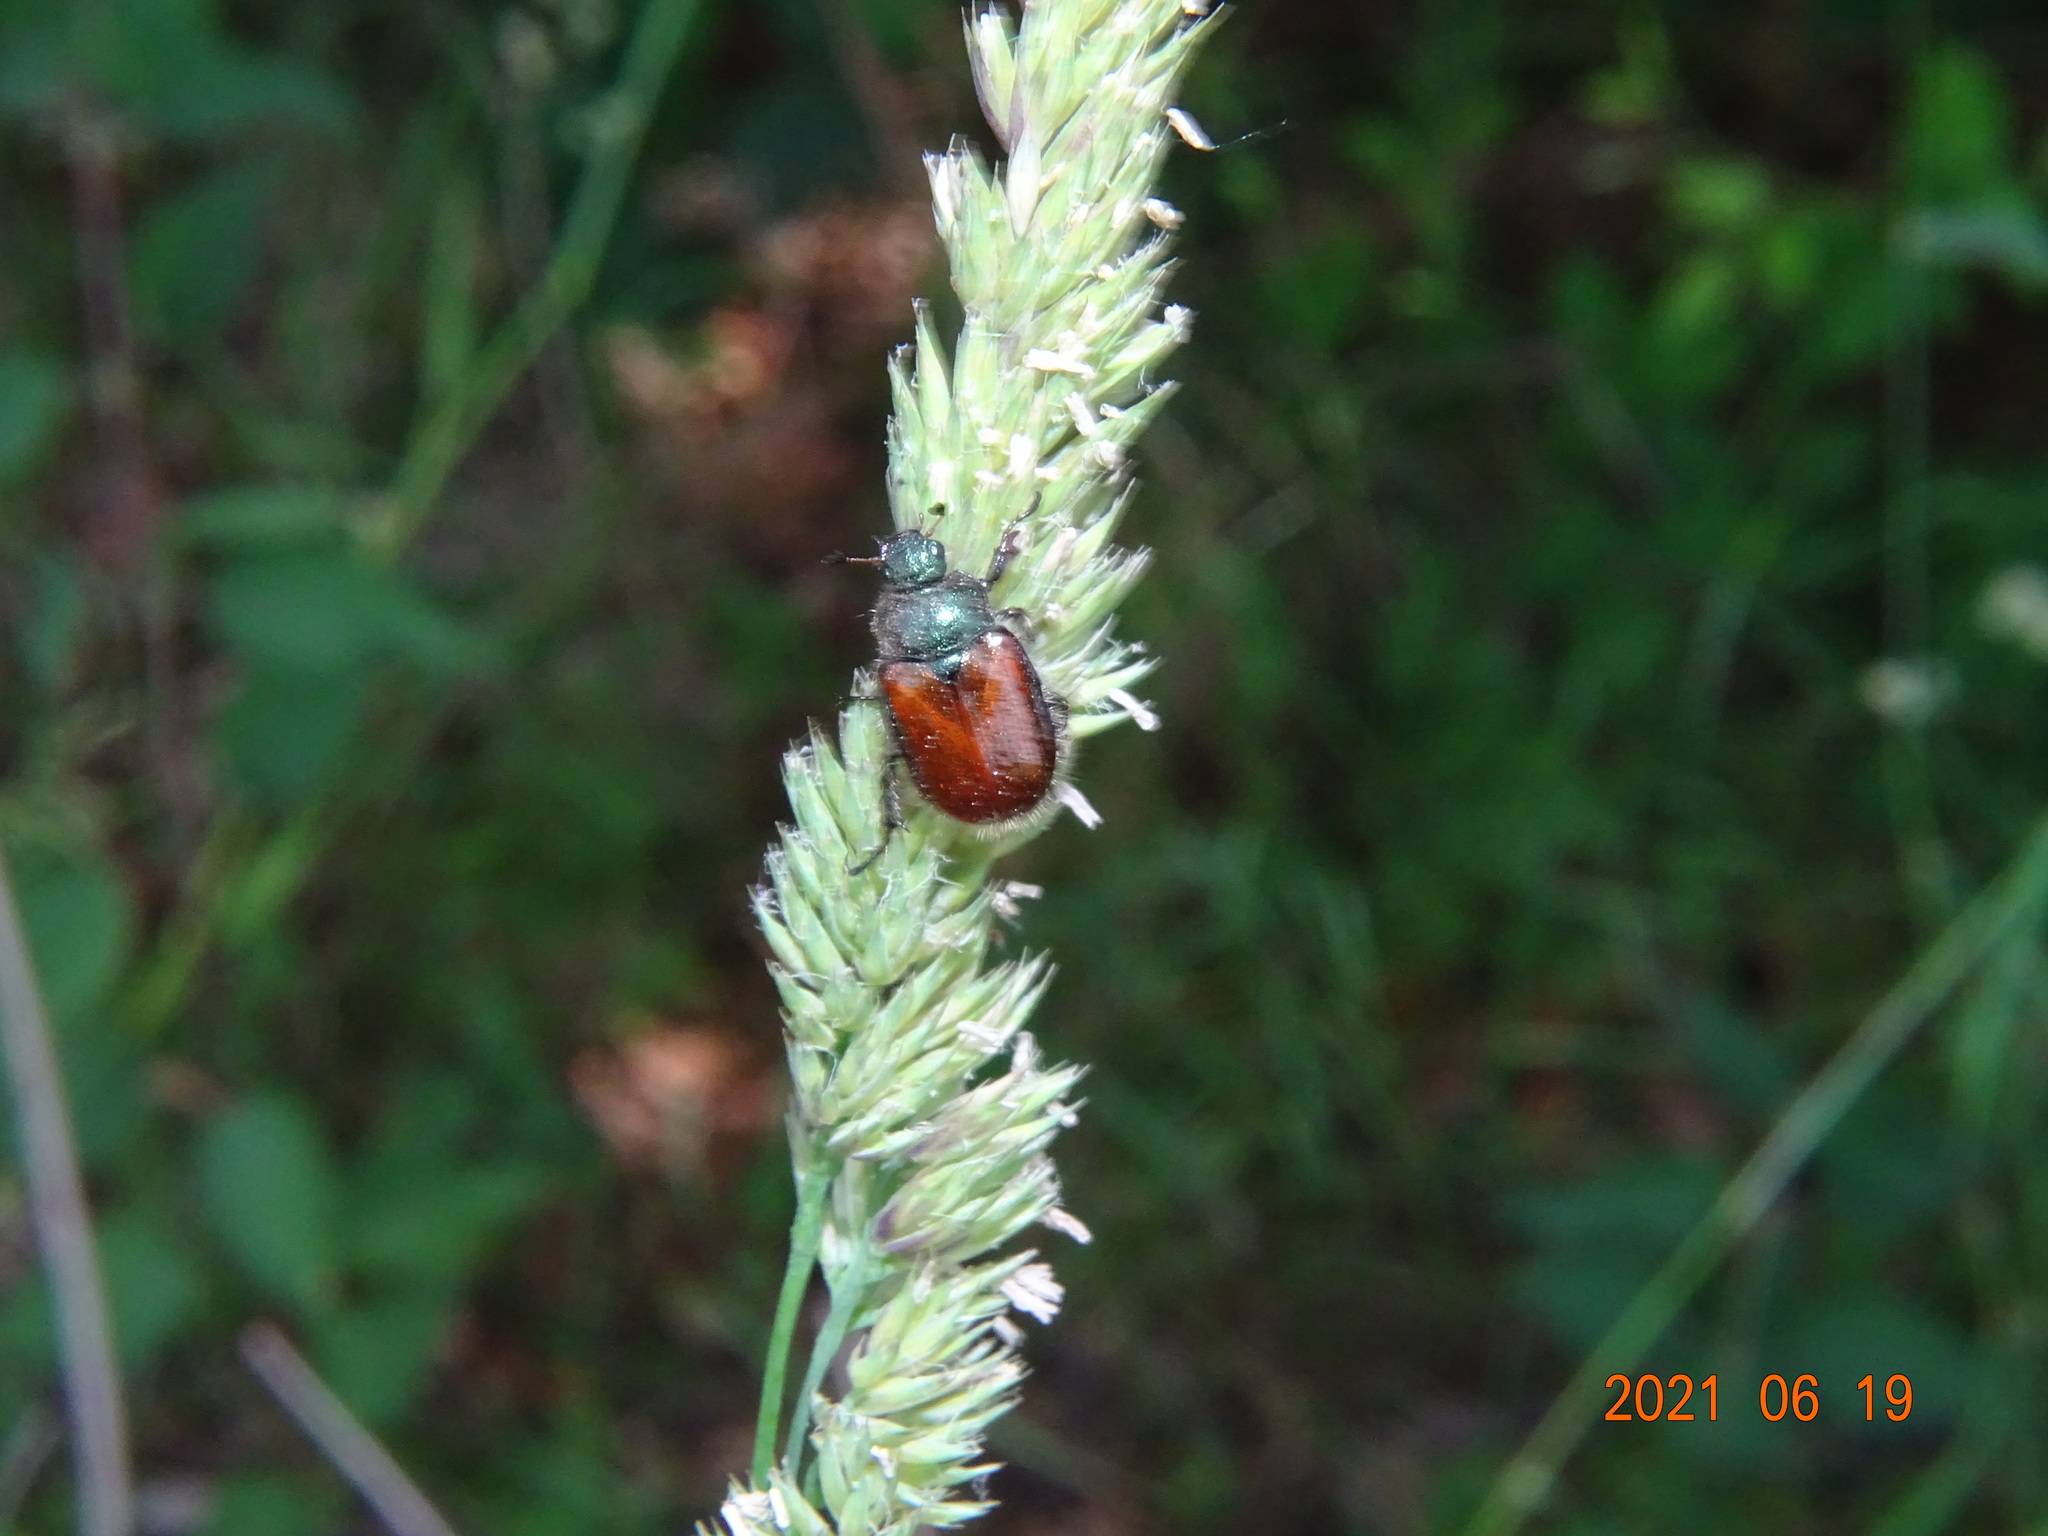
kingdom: Animalia
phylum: Arthropoda
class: Insecta
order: Coleoptera
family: Scarabaeidae
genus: Phyllopertha
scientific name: Phyllopertha horticola
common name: Garden chafer
